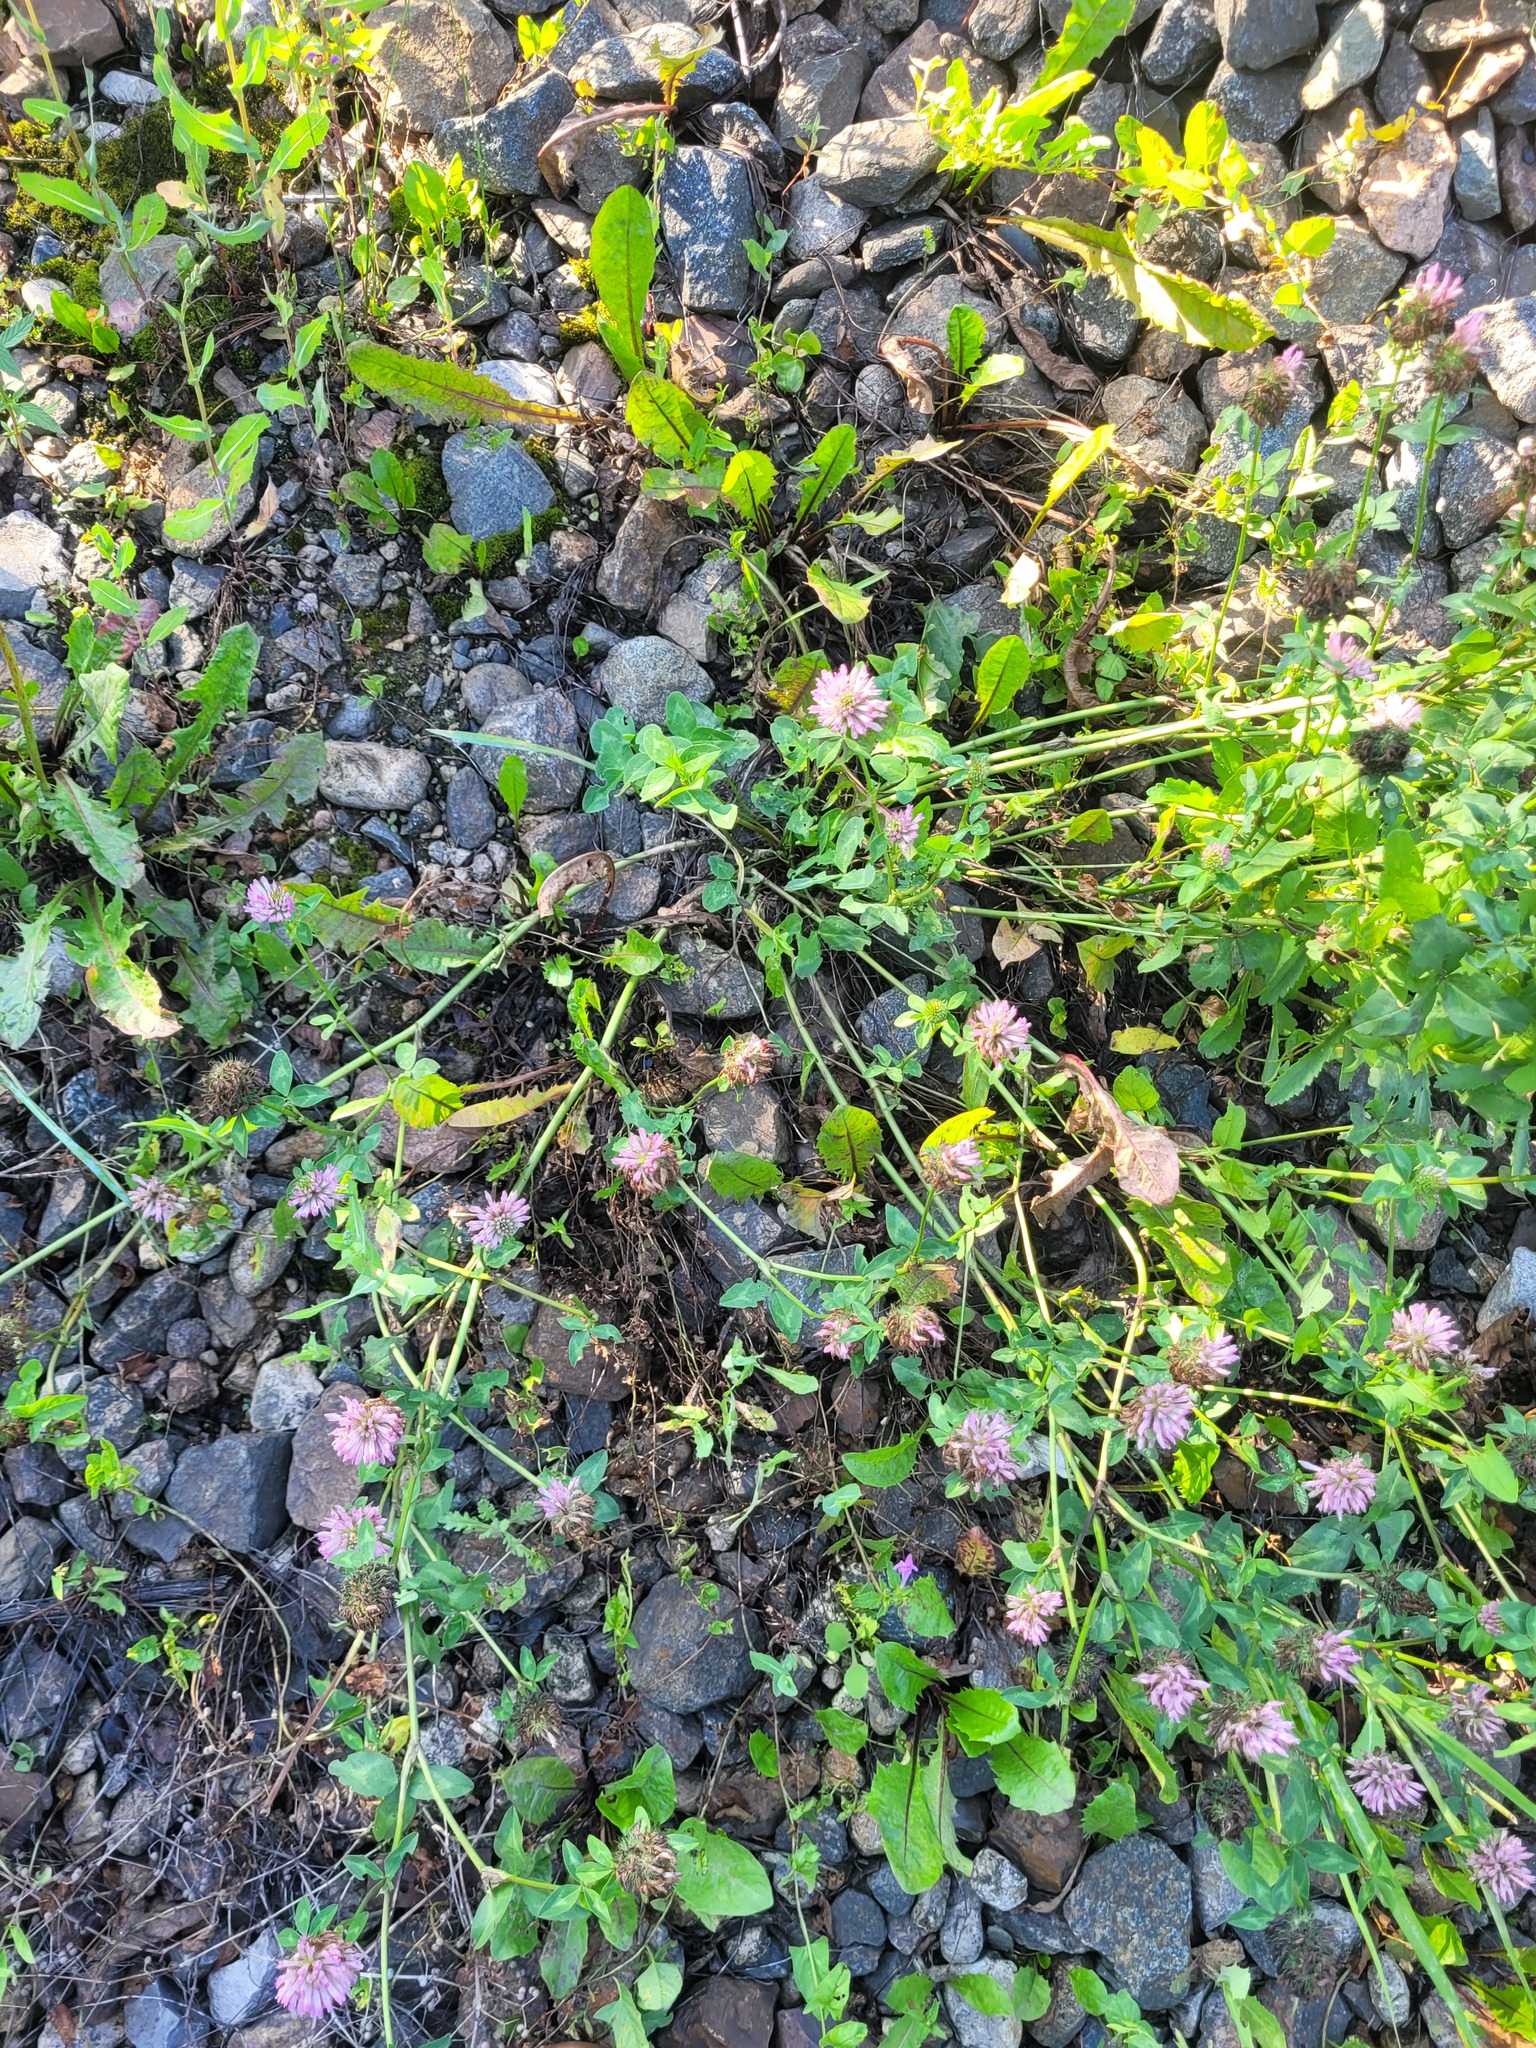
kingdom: Plantae
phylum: Tracheophyta
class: Magnoliopsida
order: Fabales
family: Fabaceae
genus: Trifolium
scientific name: Trifolium pratense
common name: Red clover
